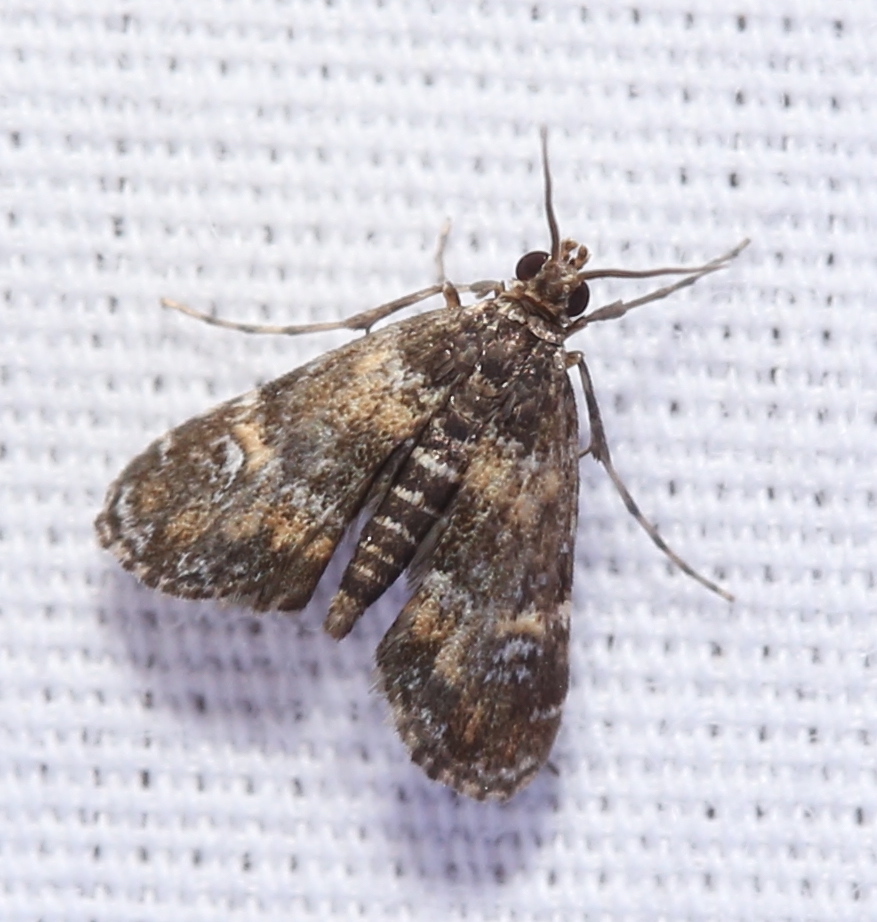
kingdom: Animalia
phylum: Arthropoda
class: Insecta
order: Lepidoptera
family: Crambidae
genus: Elophila
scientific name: Elophila obliteralis
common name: Waterlily leafcutter moth
